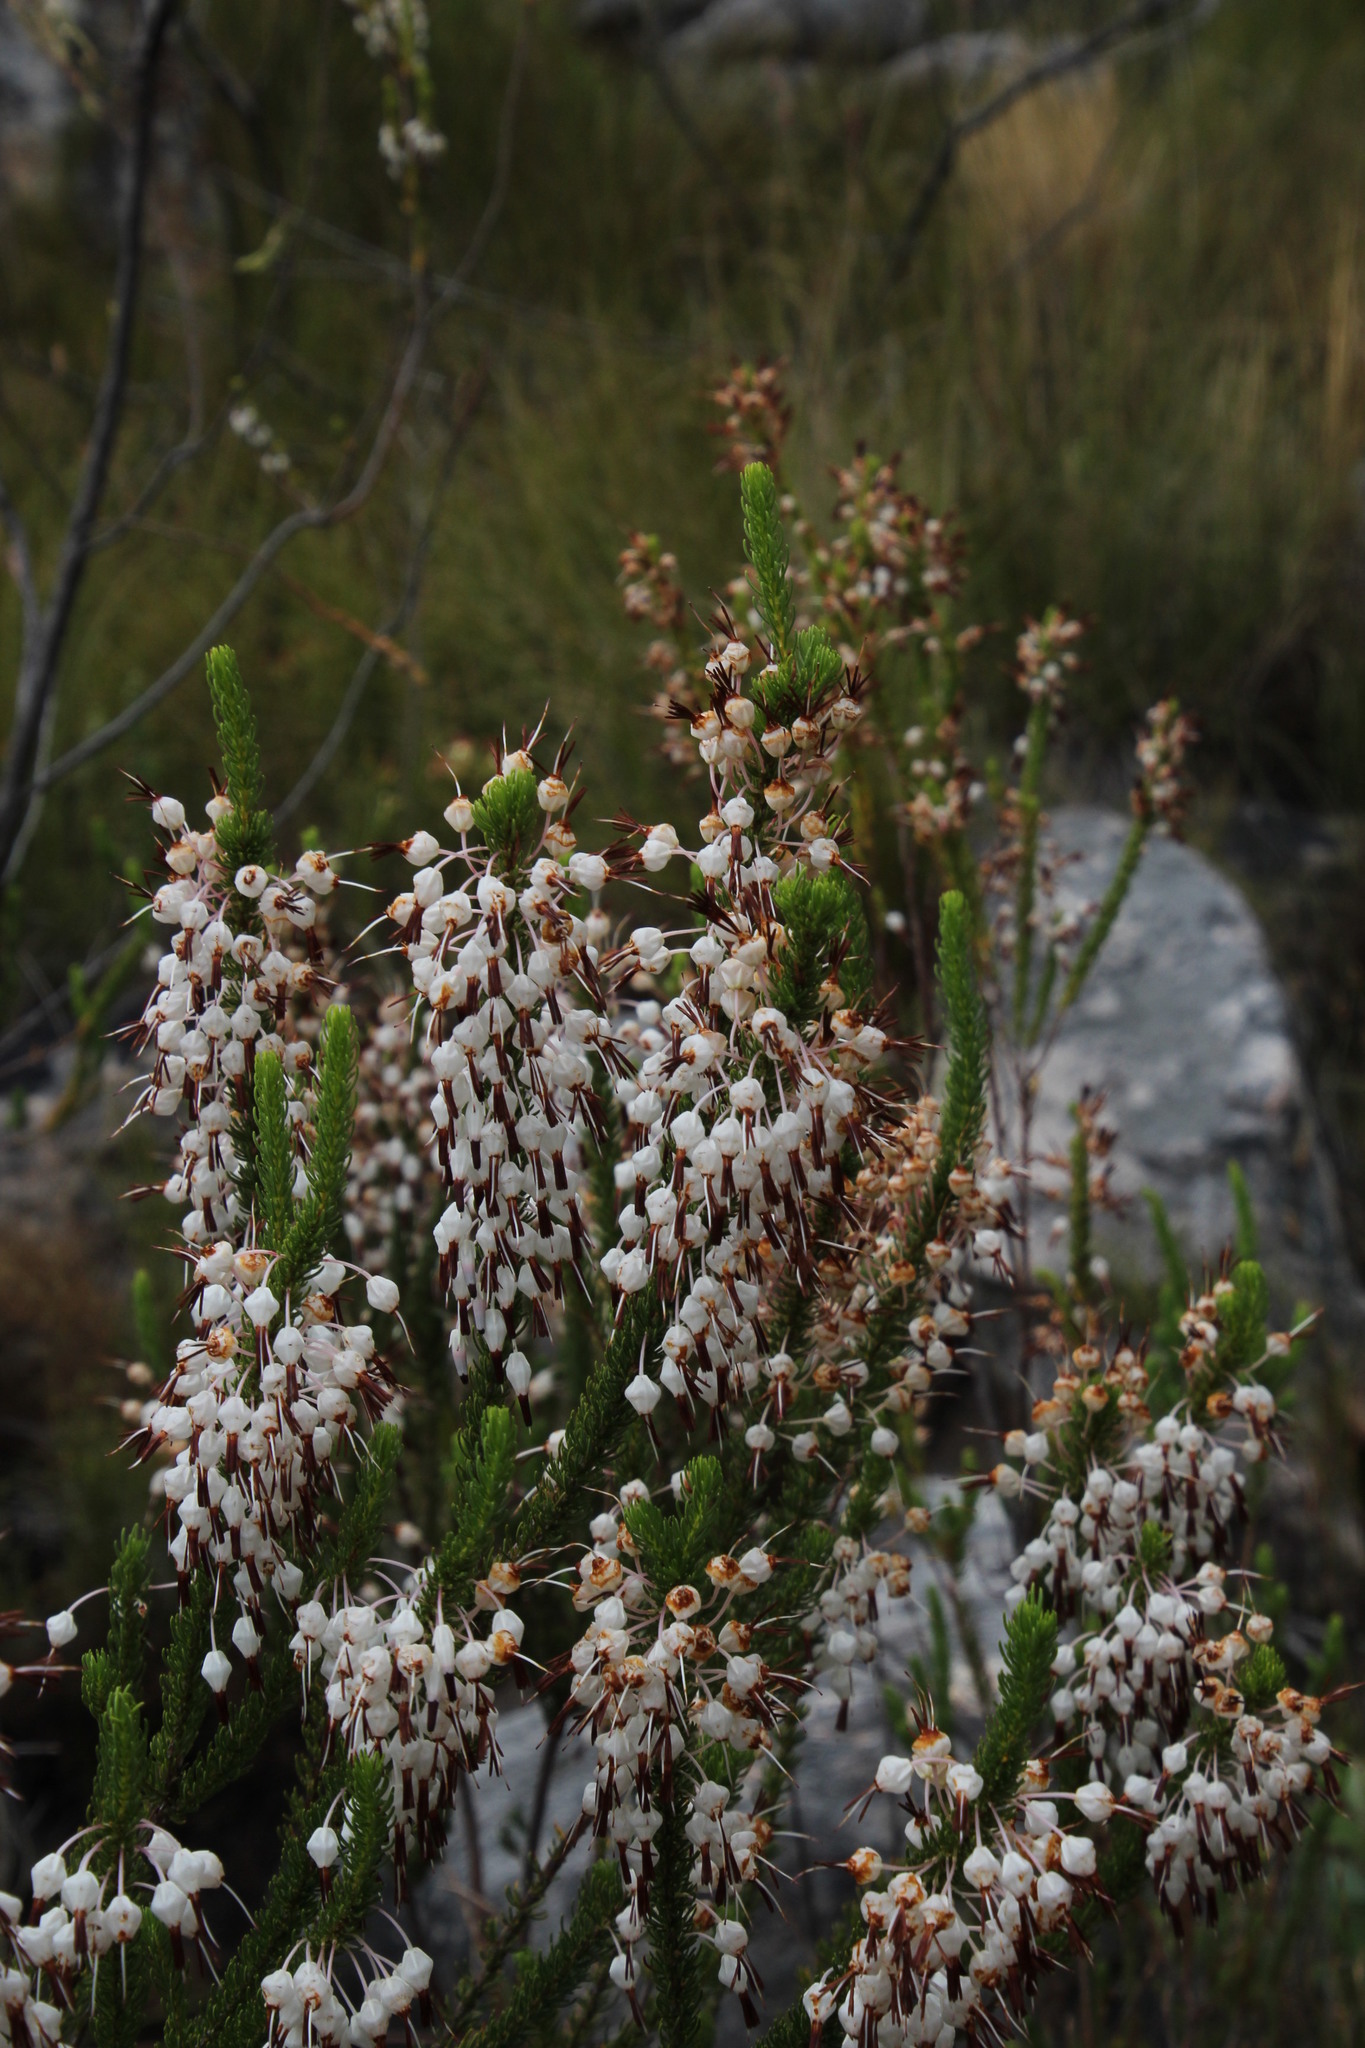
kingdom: Plantae
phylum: Tracheophyta
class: Magnoliopsida
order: Ericales
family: Ericaceae
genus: Erica
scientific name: Erica plukenetii
